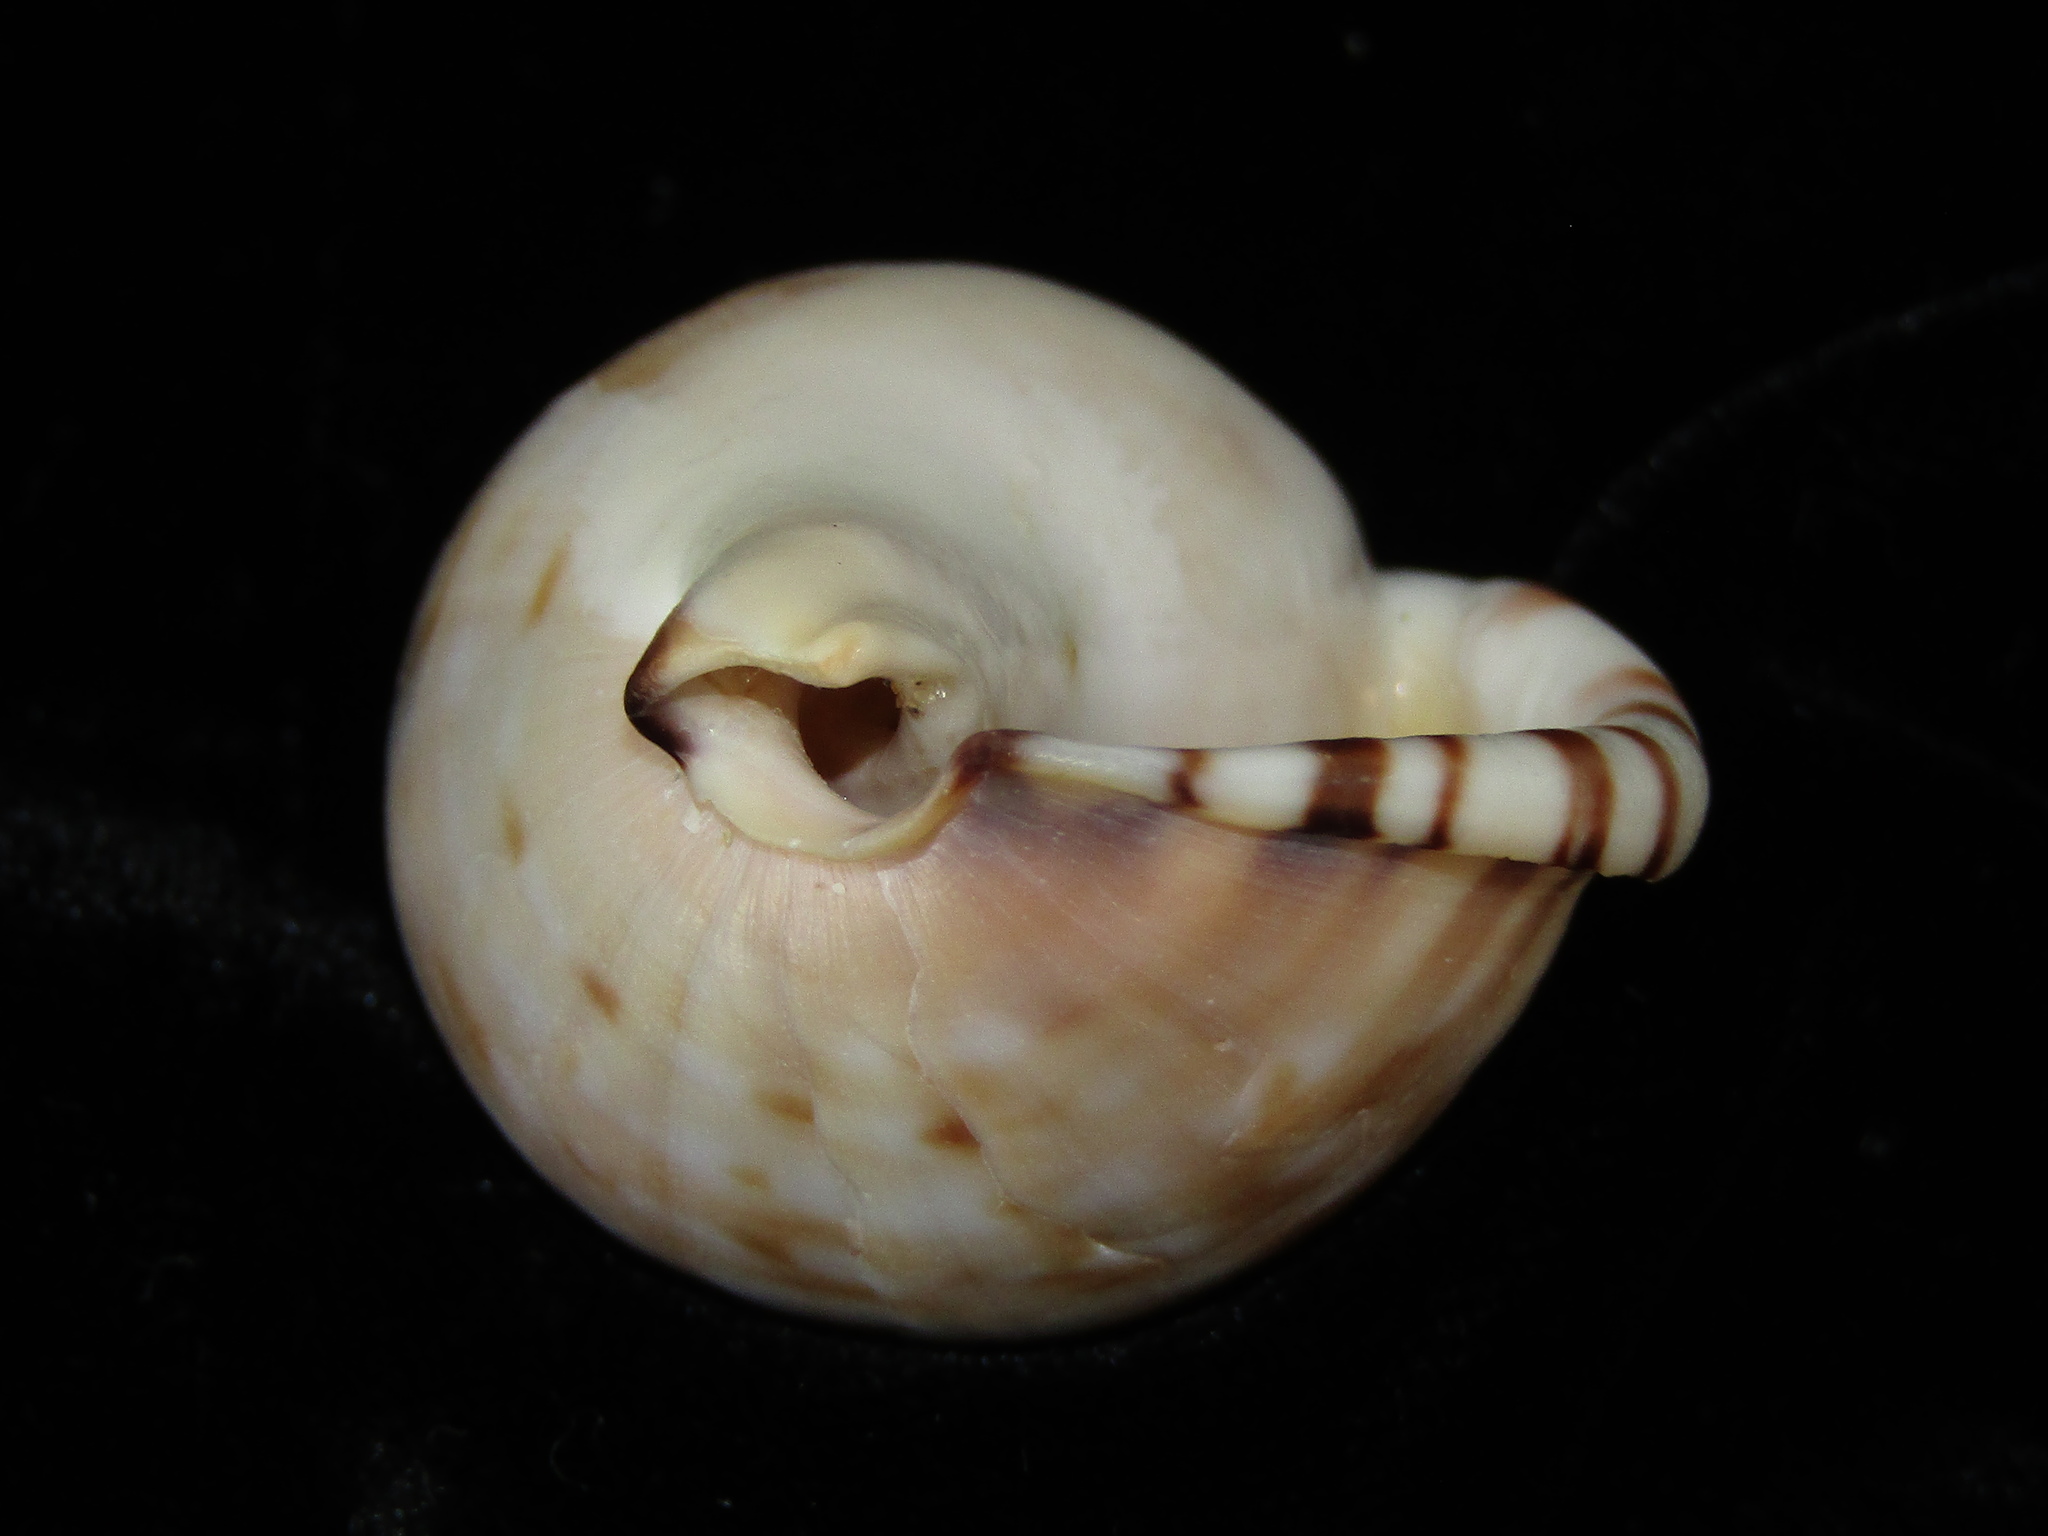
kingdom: Animalia
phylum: Mollusca
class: Gastropoda
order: Littorinimorpha
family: Cassidae
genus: Semicassis
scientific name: Semicassis labiata
